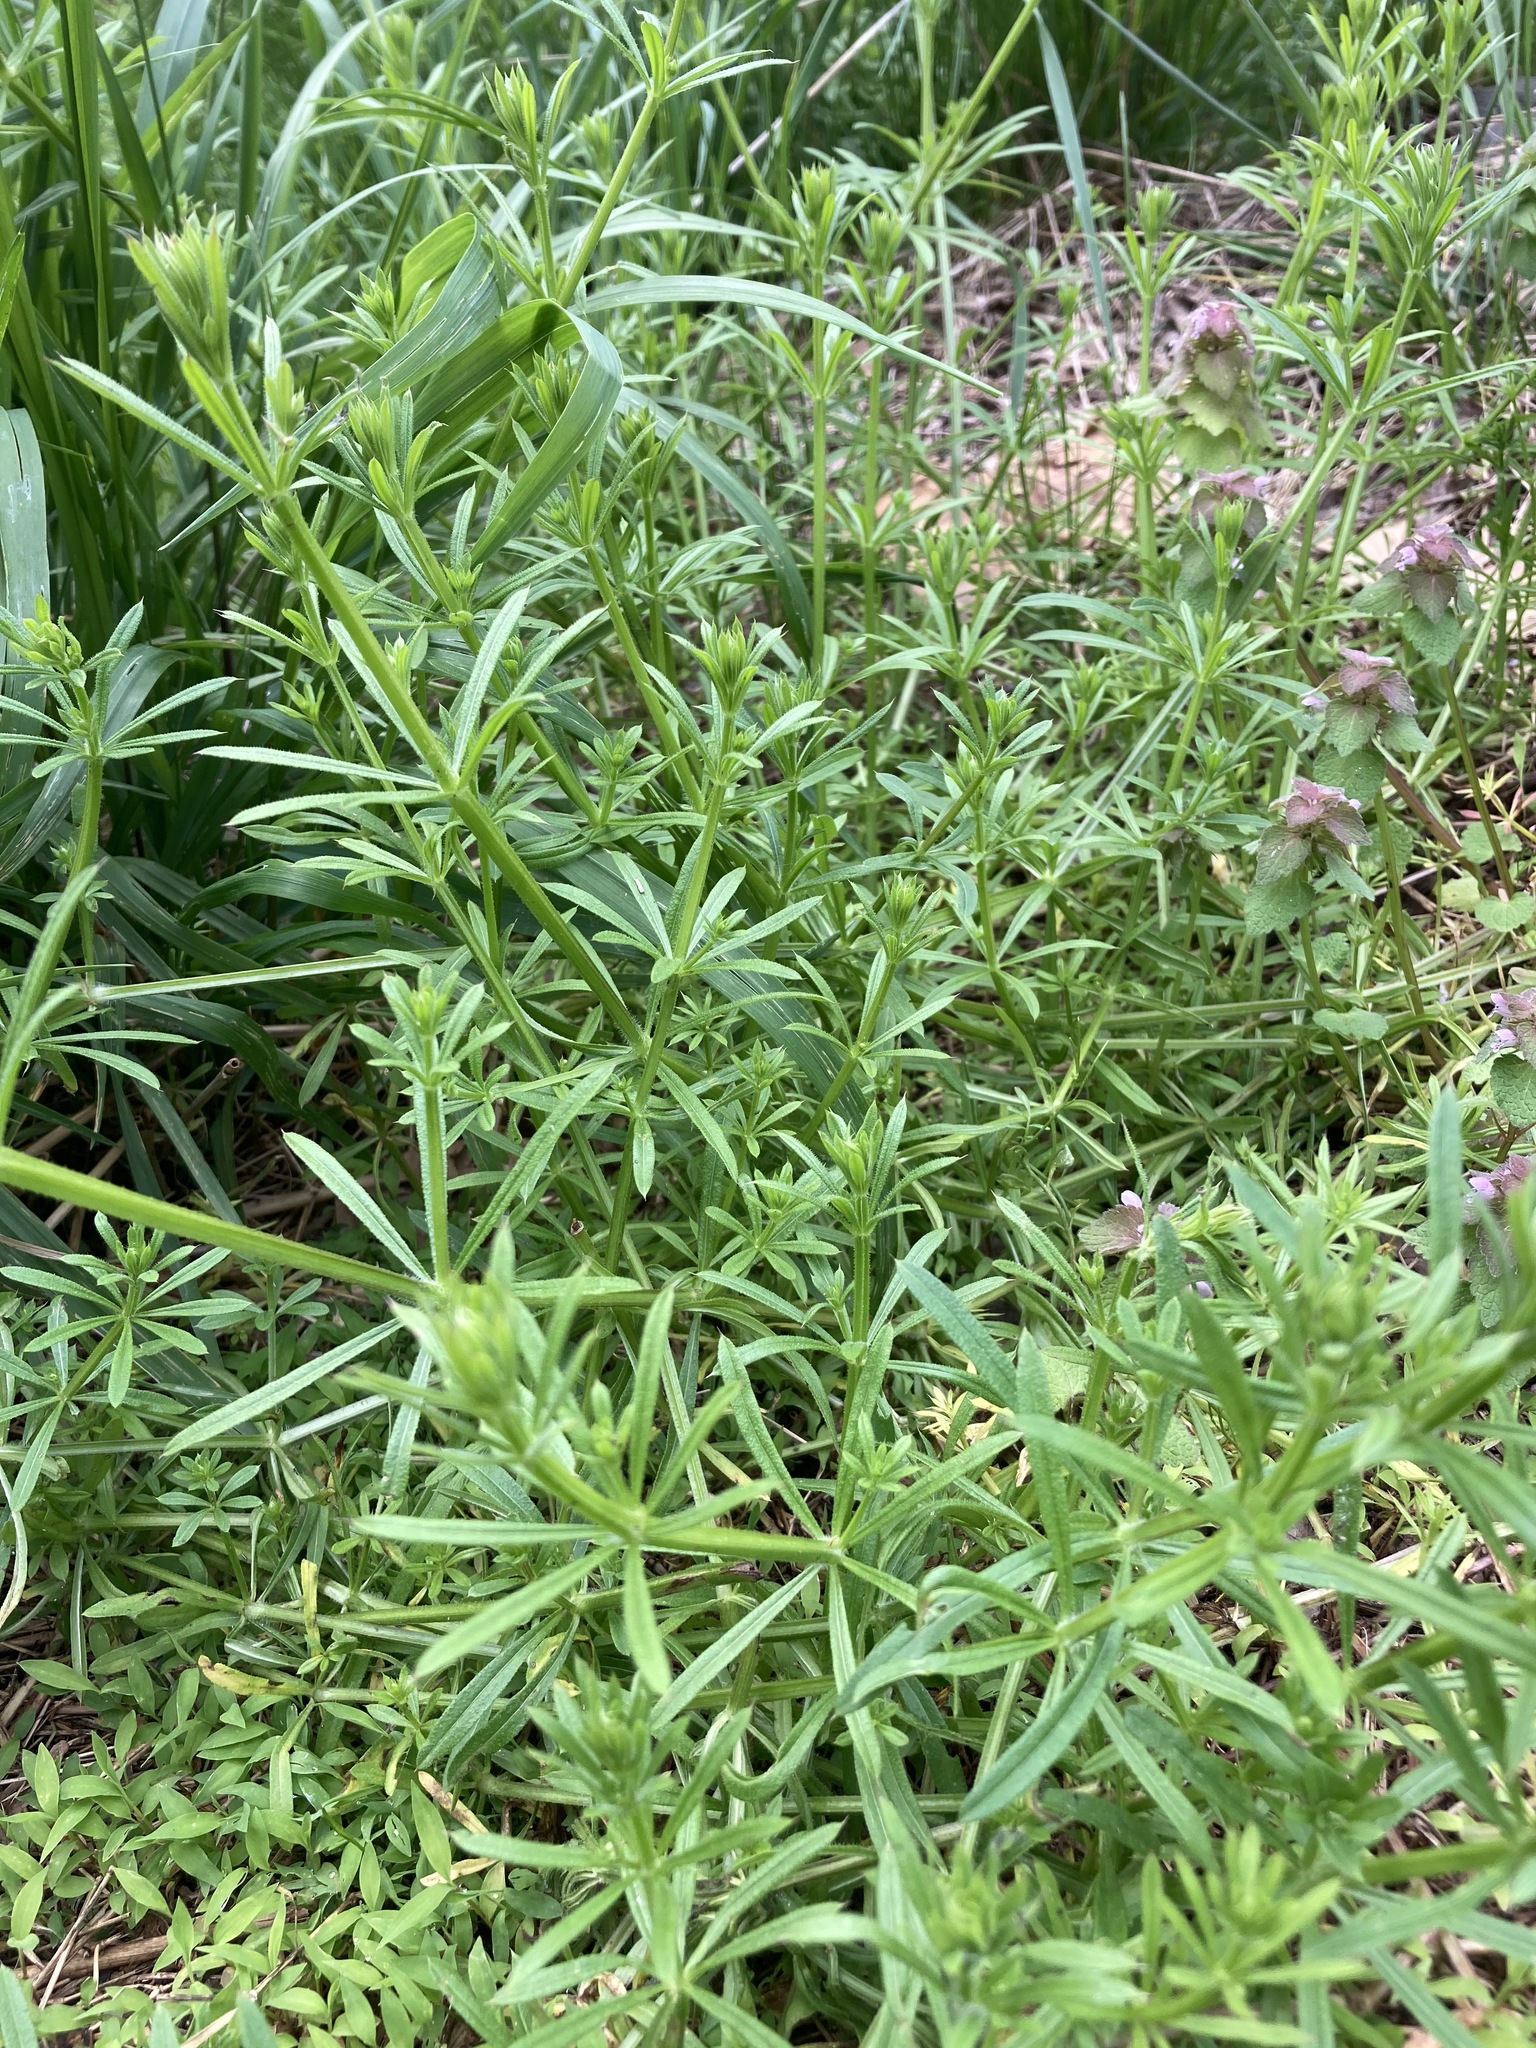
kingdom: Plantae
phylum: Tracheophyta
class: Magnoliopsida
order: Gentianales
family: Rubiaceae
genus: Galium
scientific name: Galium aparine
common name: Cleavers
